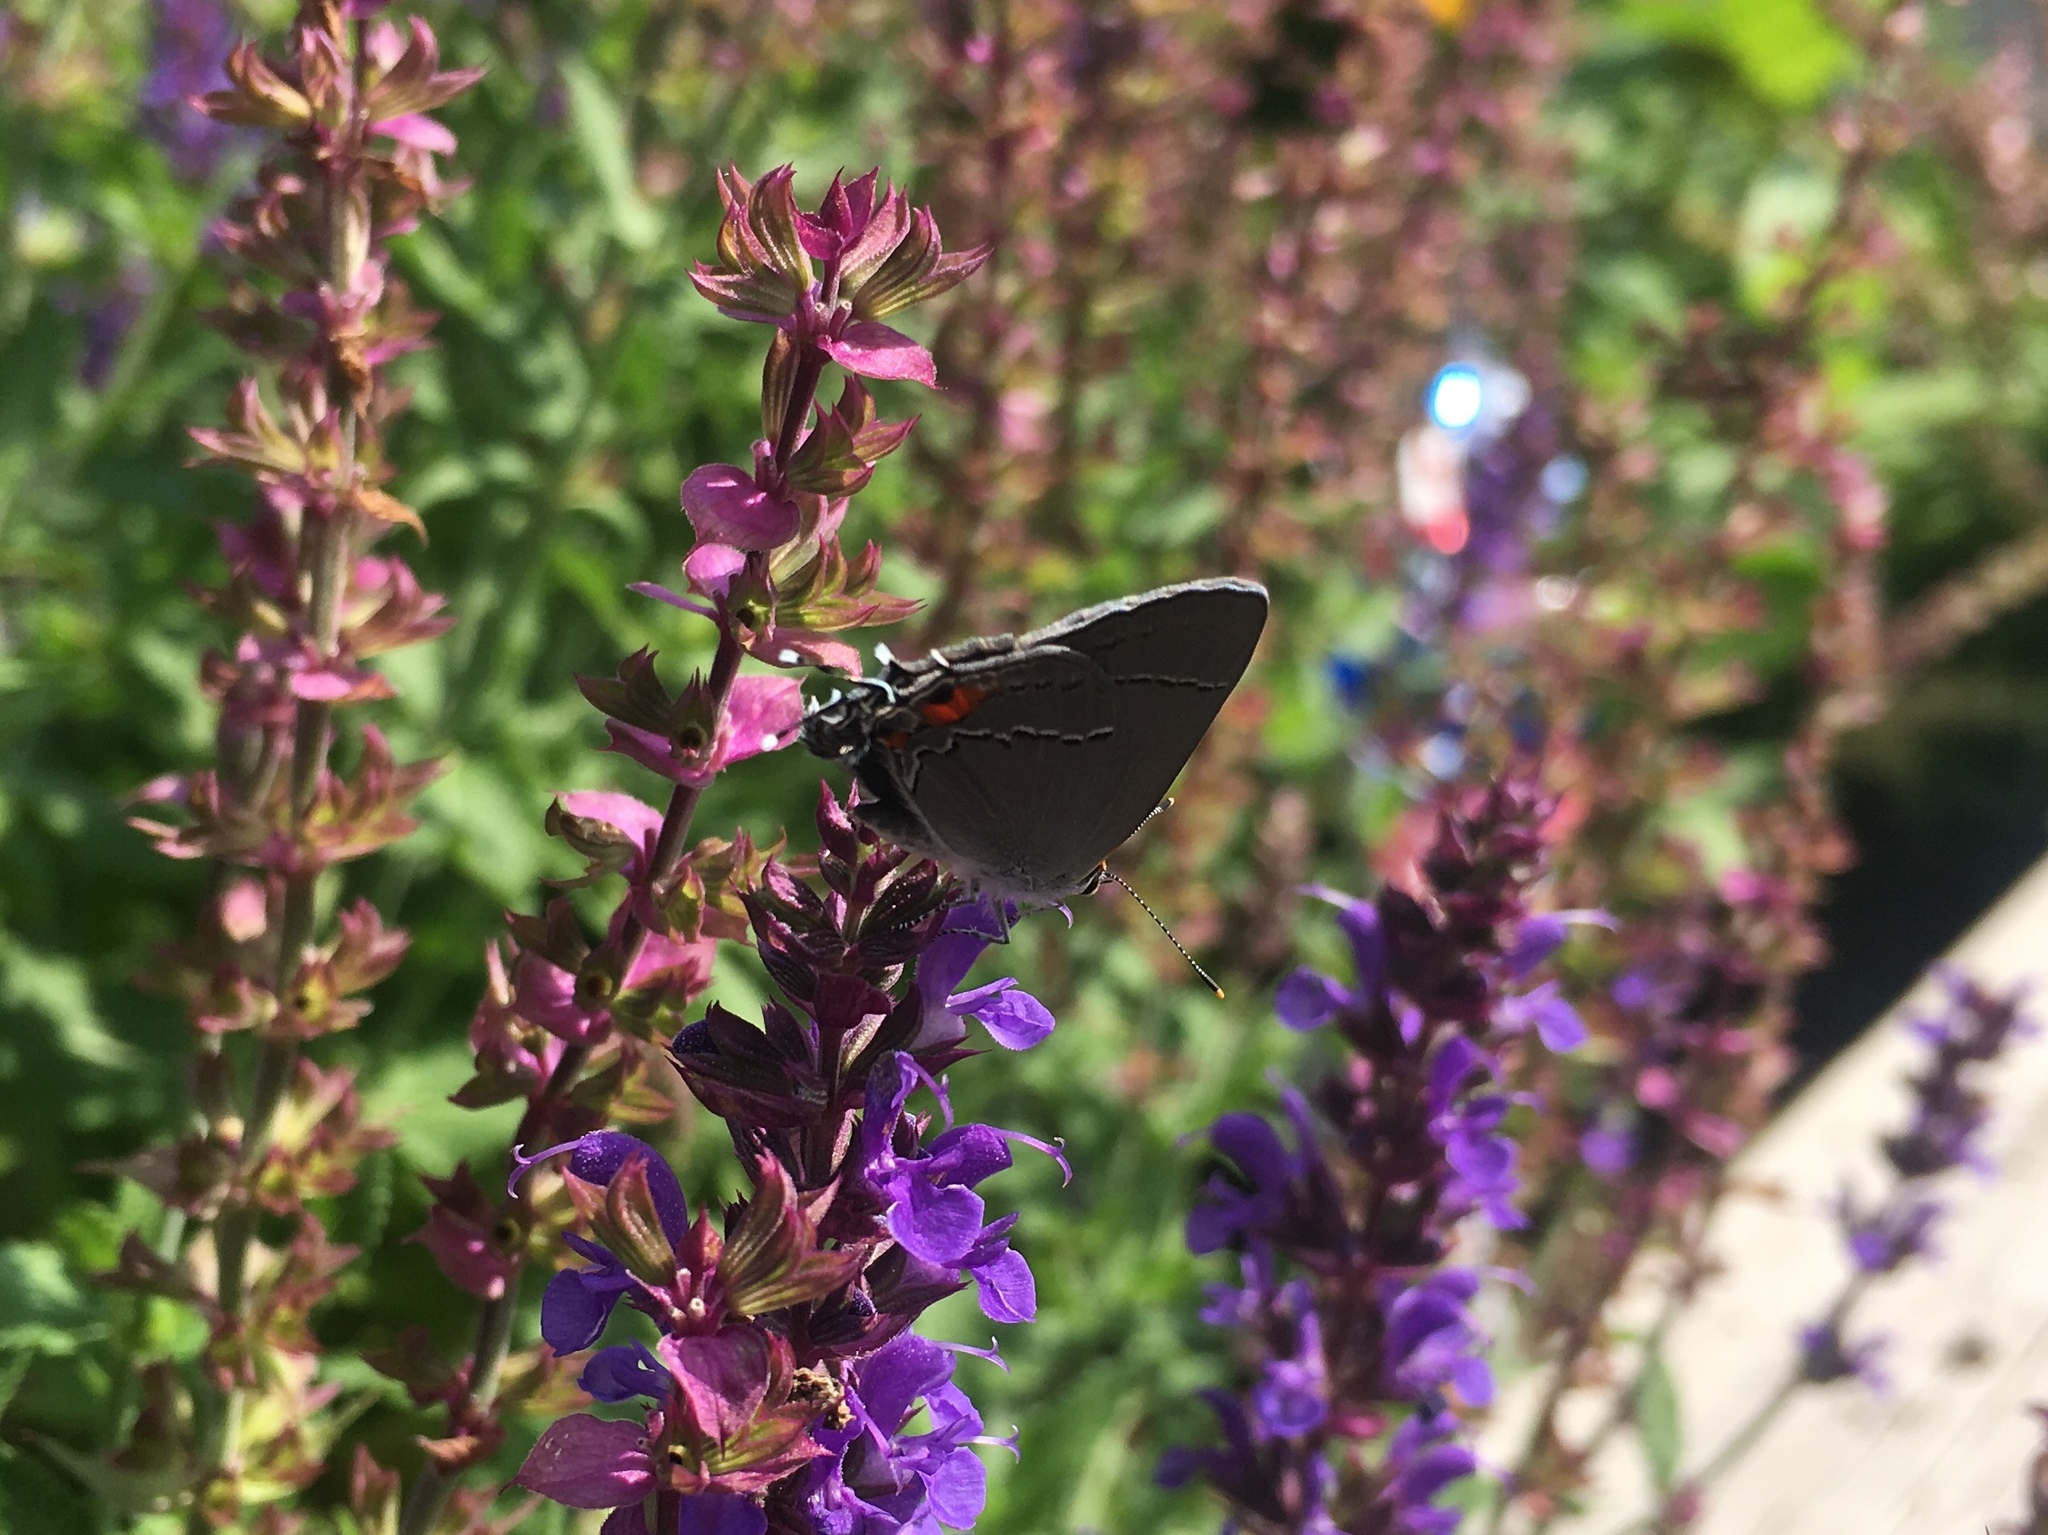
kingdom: Animalia
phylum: Arthropoda
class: Insecta
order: Lepidoptera
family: Lycaenidae
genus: Strymon
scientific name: Strymon melinus
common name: Gray hairstreak
